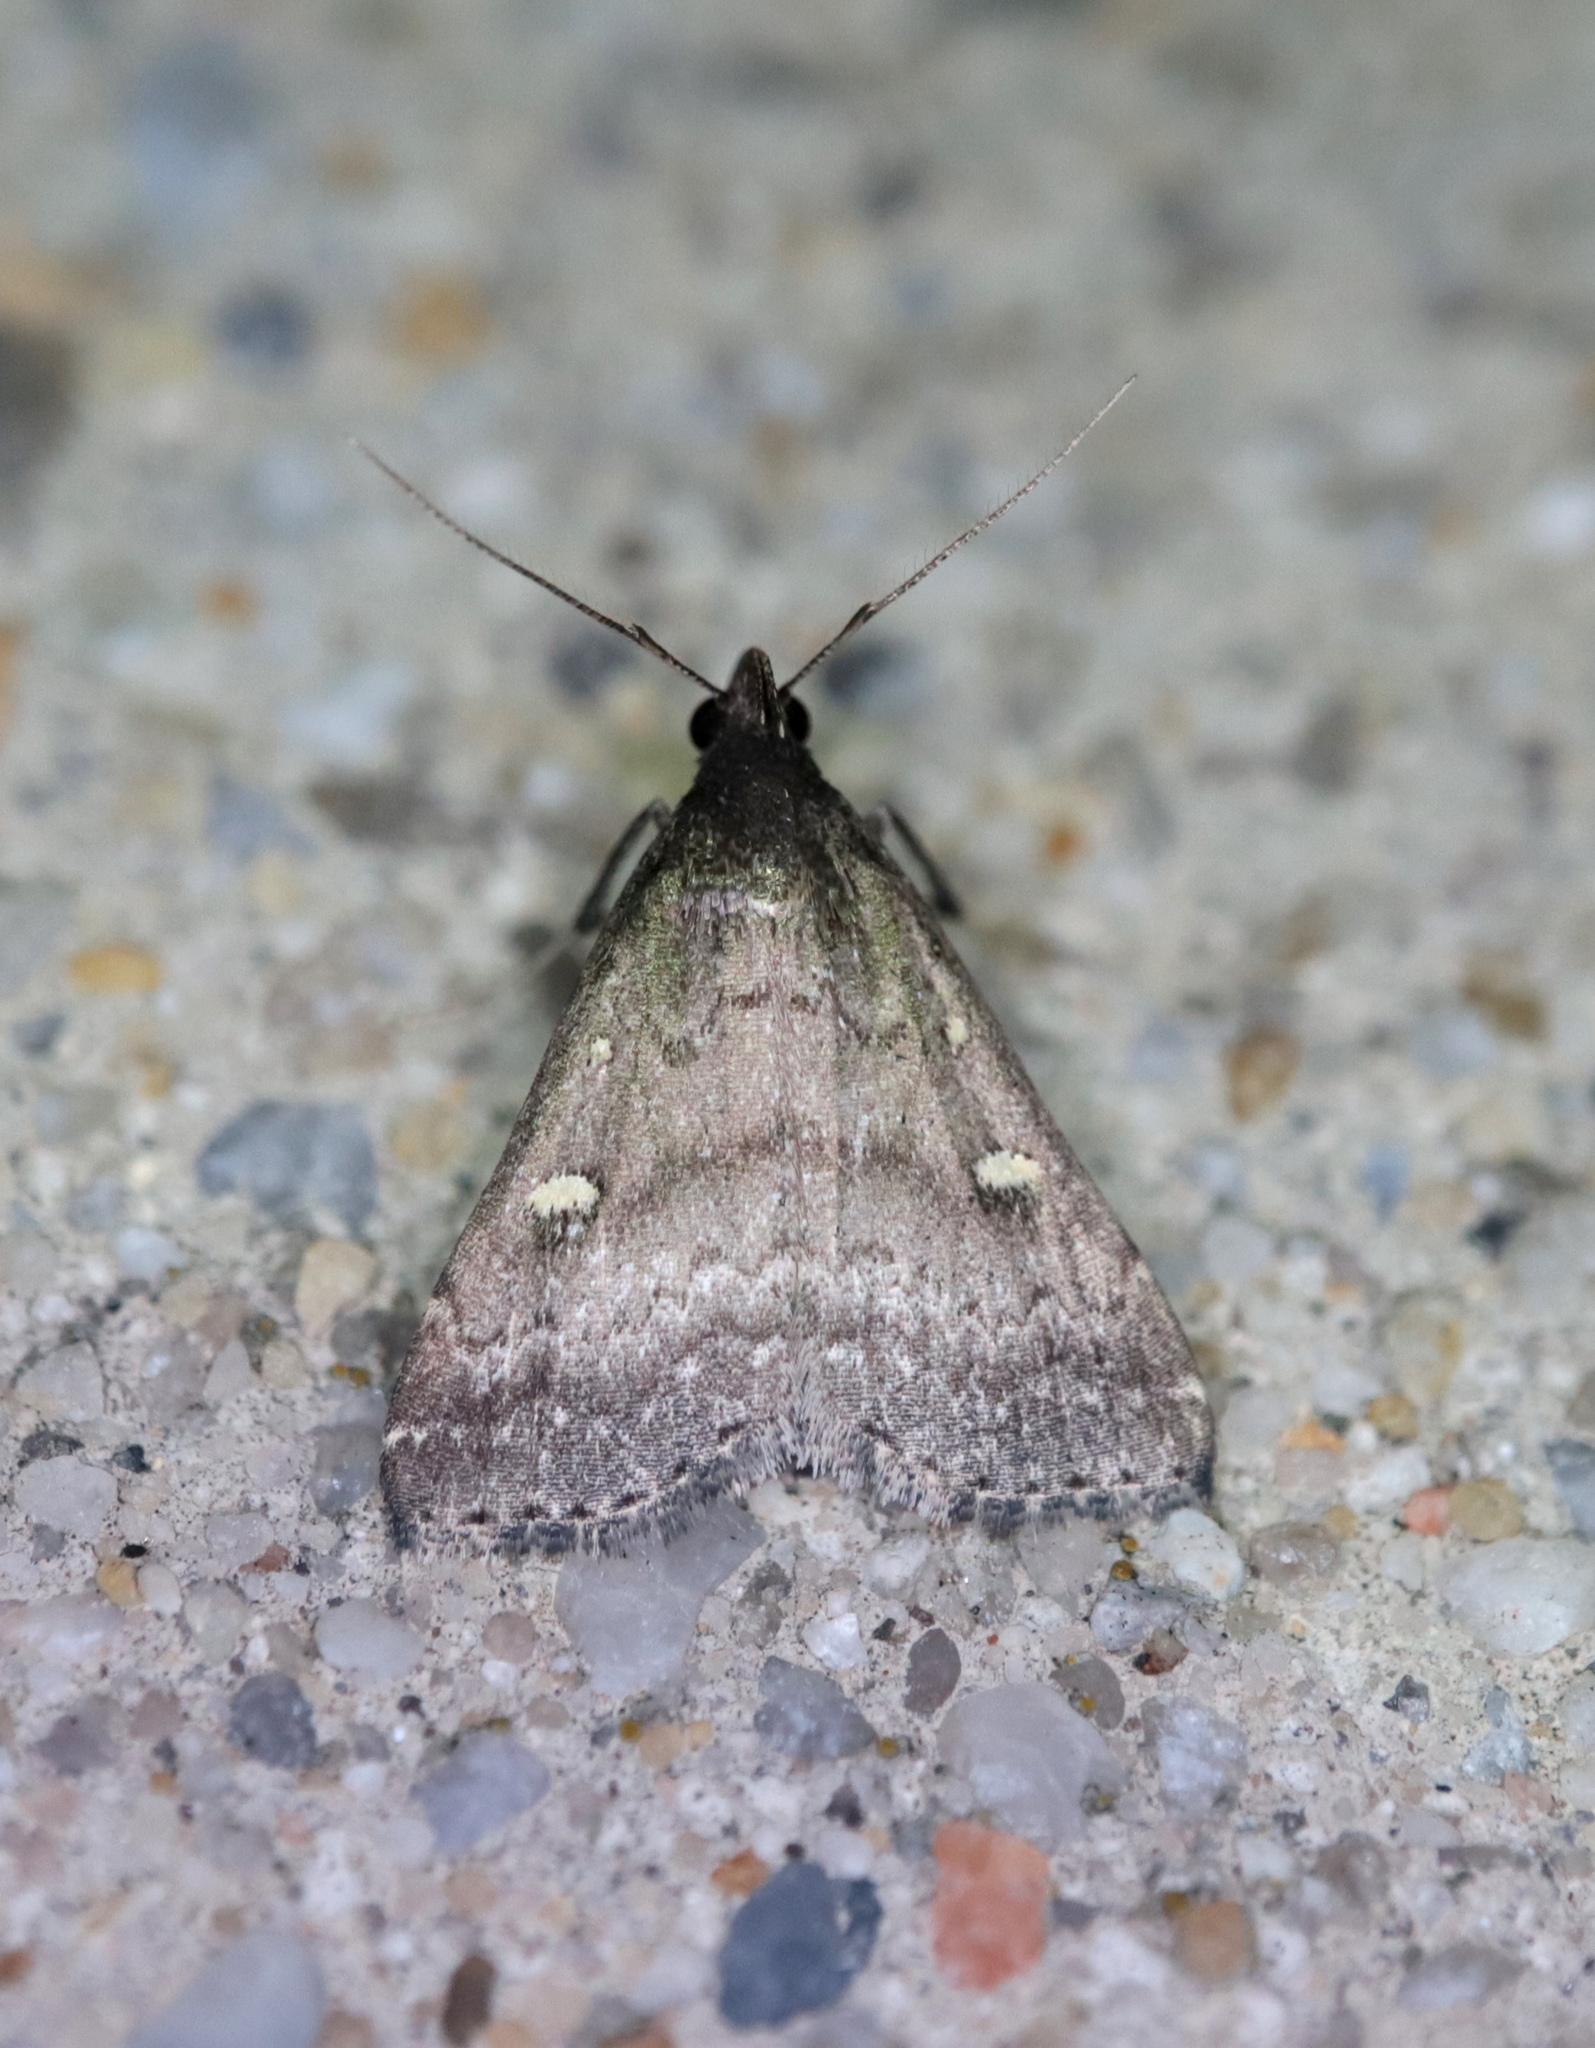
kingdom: Animalia
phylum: Arthropoda
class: Insecta
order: Lepidoptera
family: Erebidae
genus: Tetanolita
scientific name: Tetanolita mynesalis
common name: Smoky tetanolita moth
